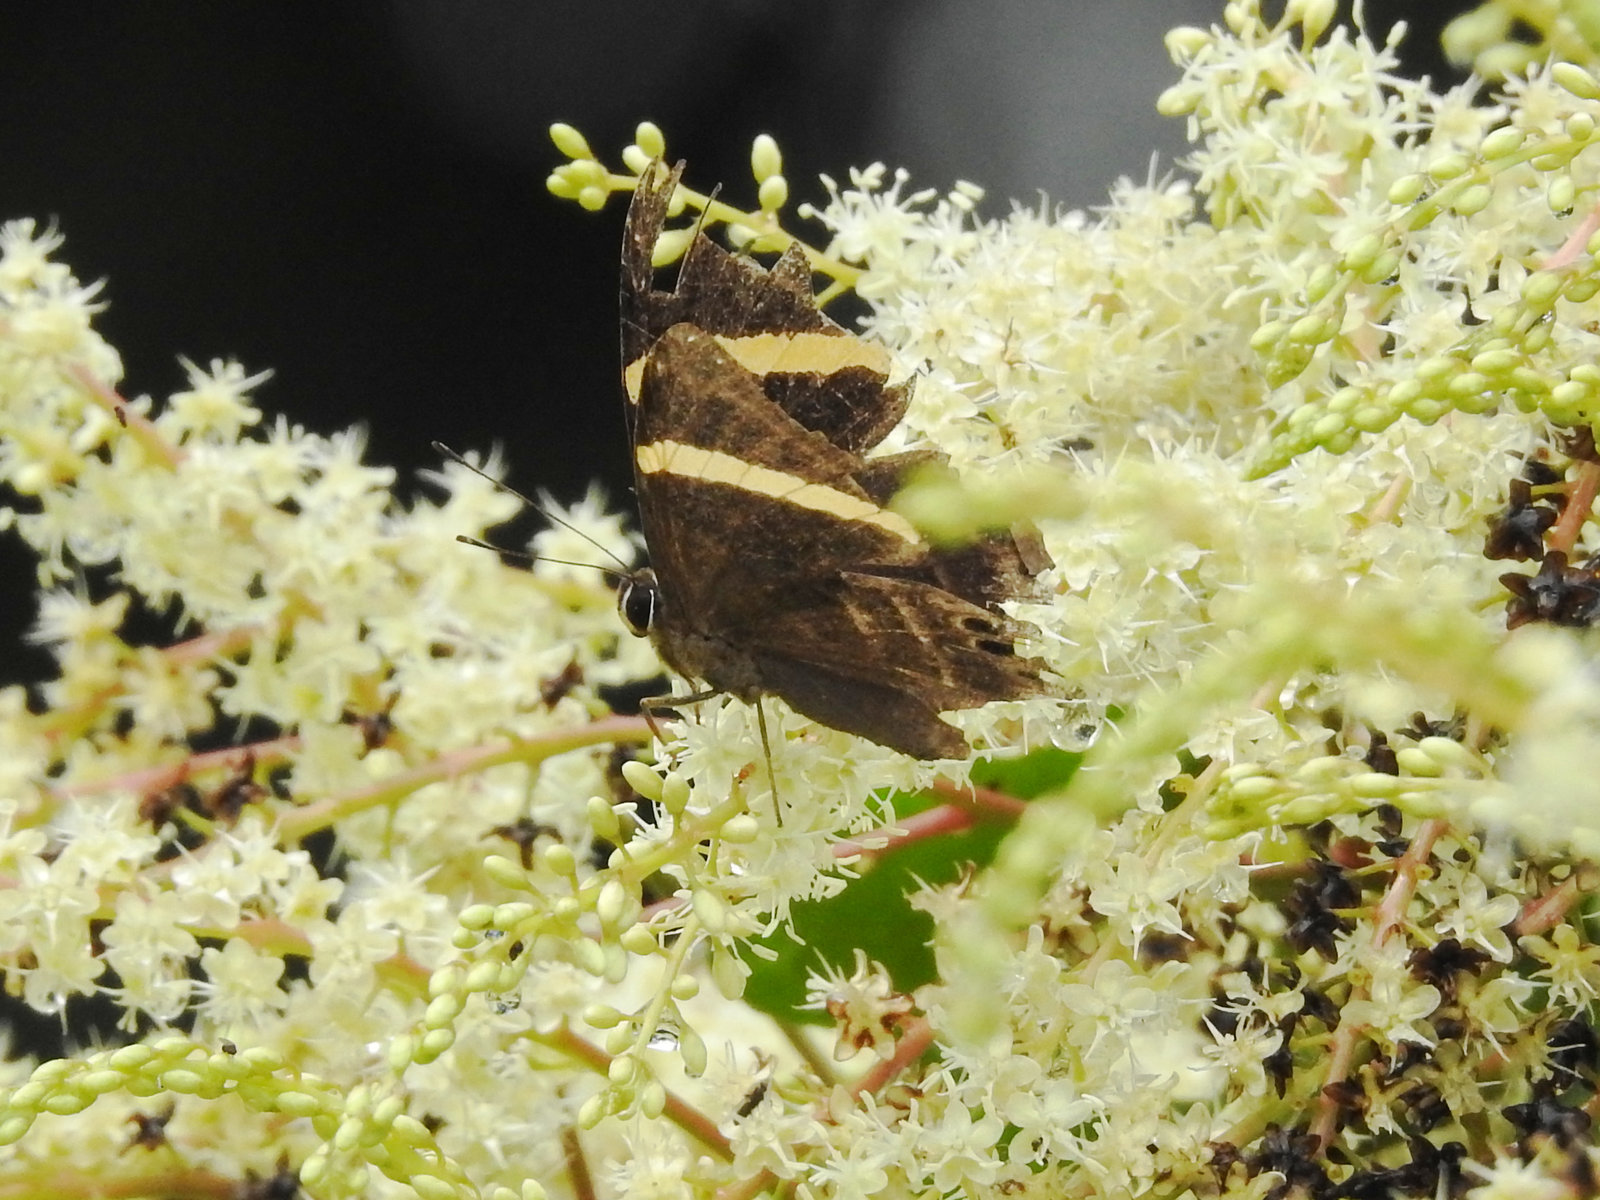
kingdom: Animalia
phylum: Arthropoda
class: Insecta
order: Lepidoptera
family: Lycaenidae
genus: Abisara
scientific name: Abisara fylla
